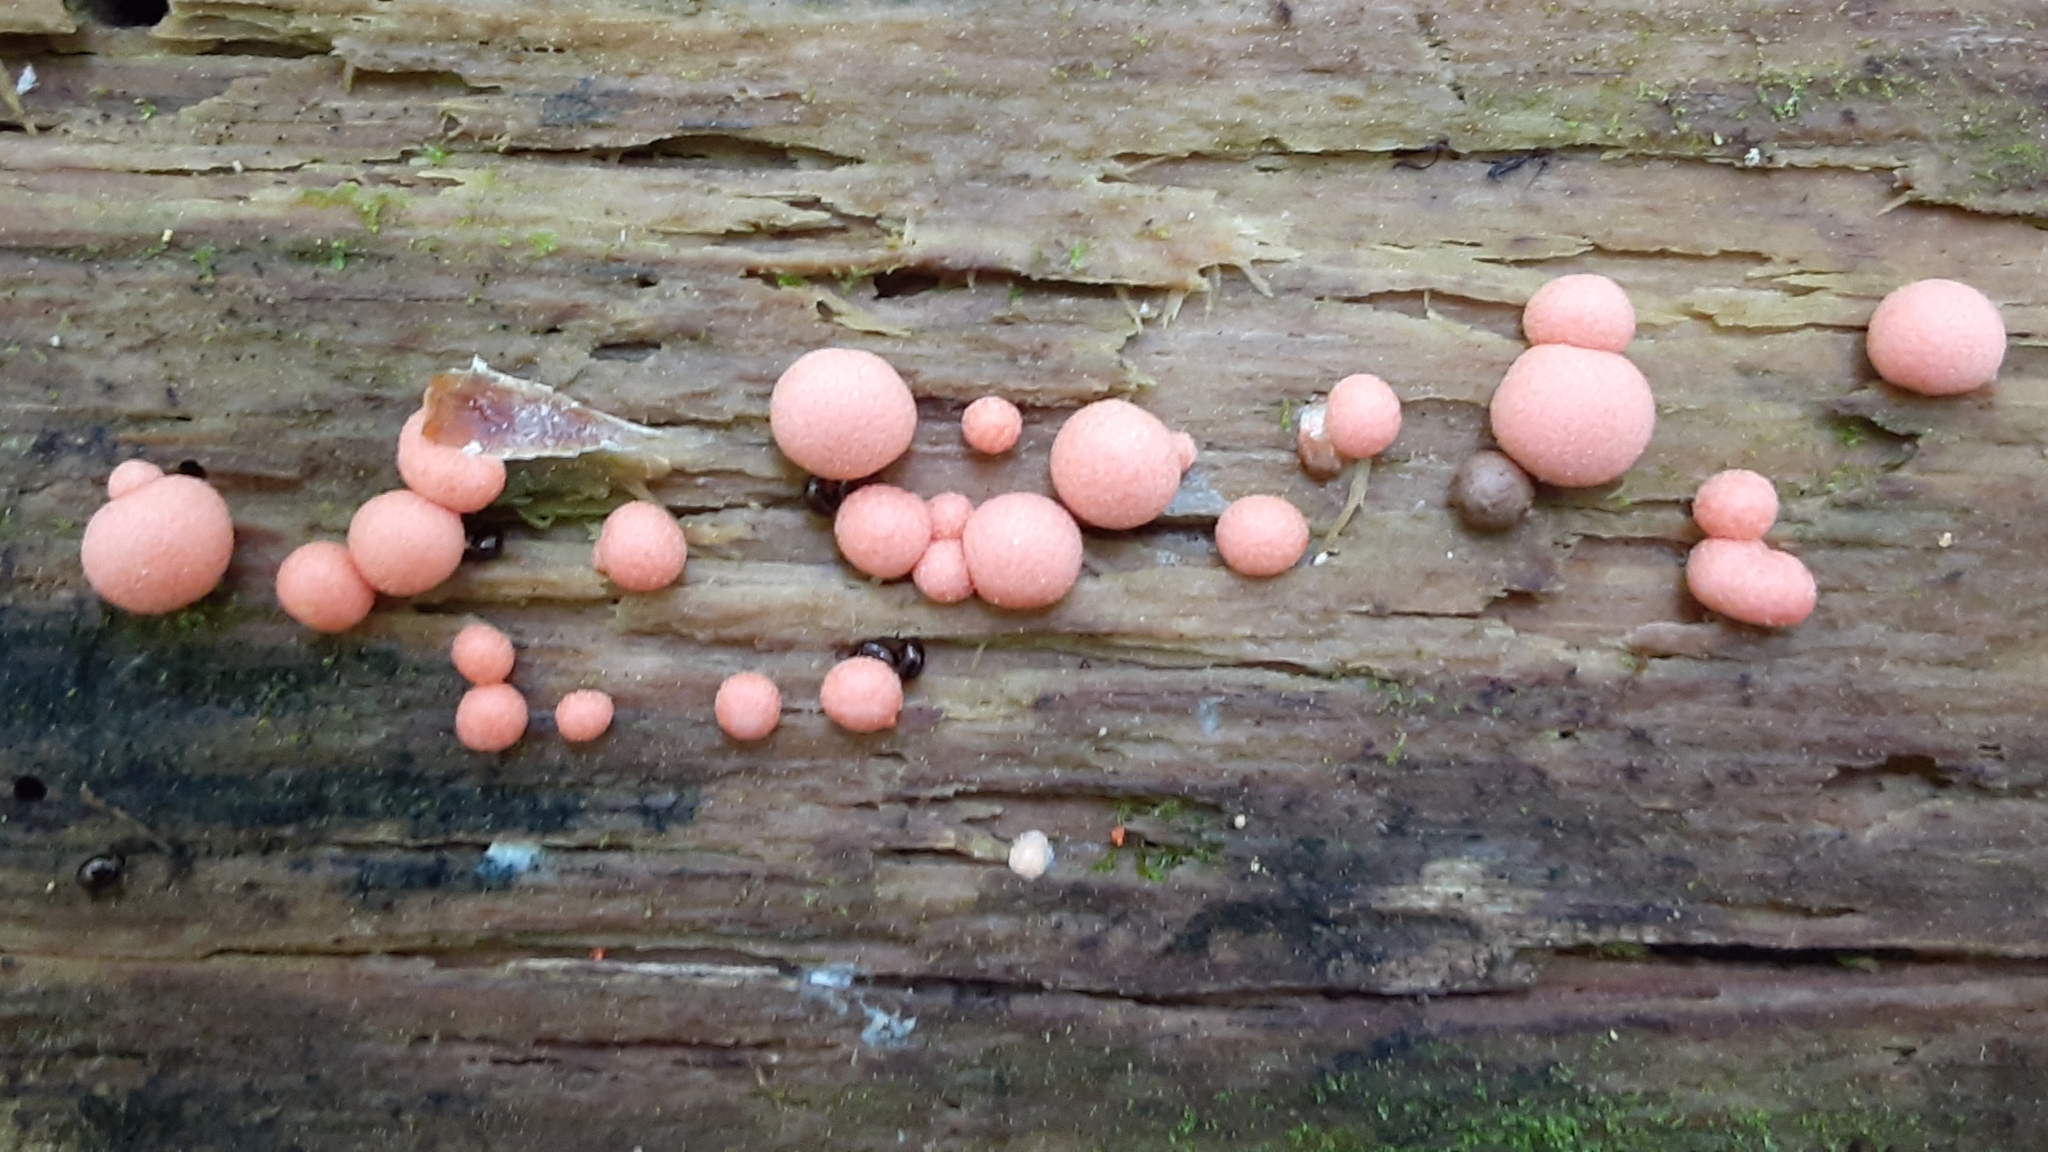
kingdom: Protozoa
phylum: Mycetozoa
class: Myxomycetes
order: Cribrariales
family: Tubiferaceae
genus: Lycogala
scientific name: Lycogala epidendrum
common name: Wolf's milk
